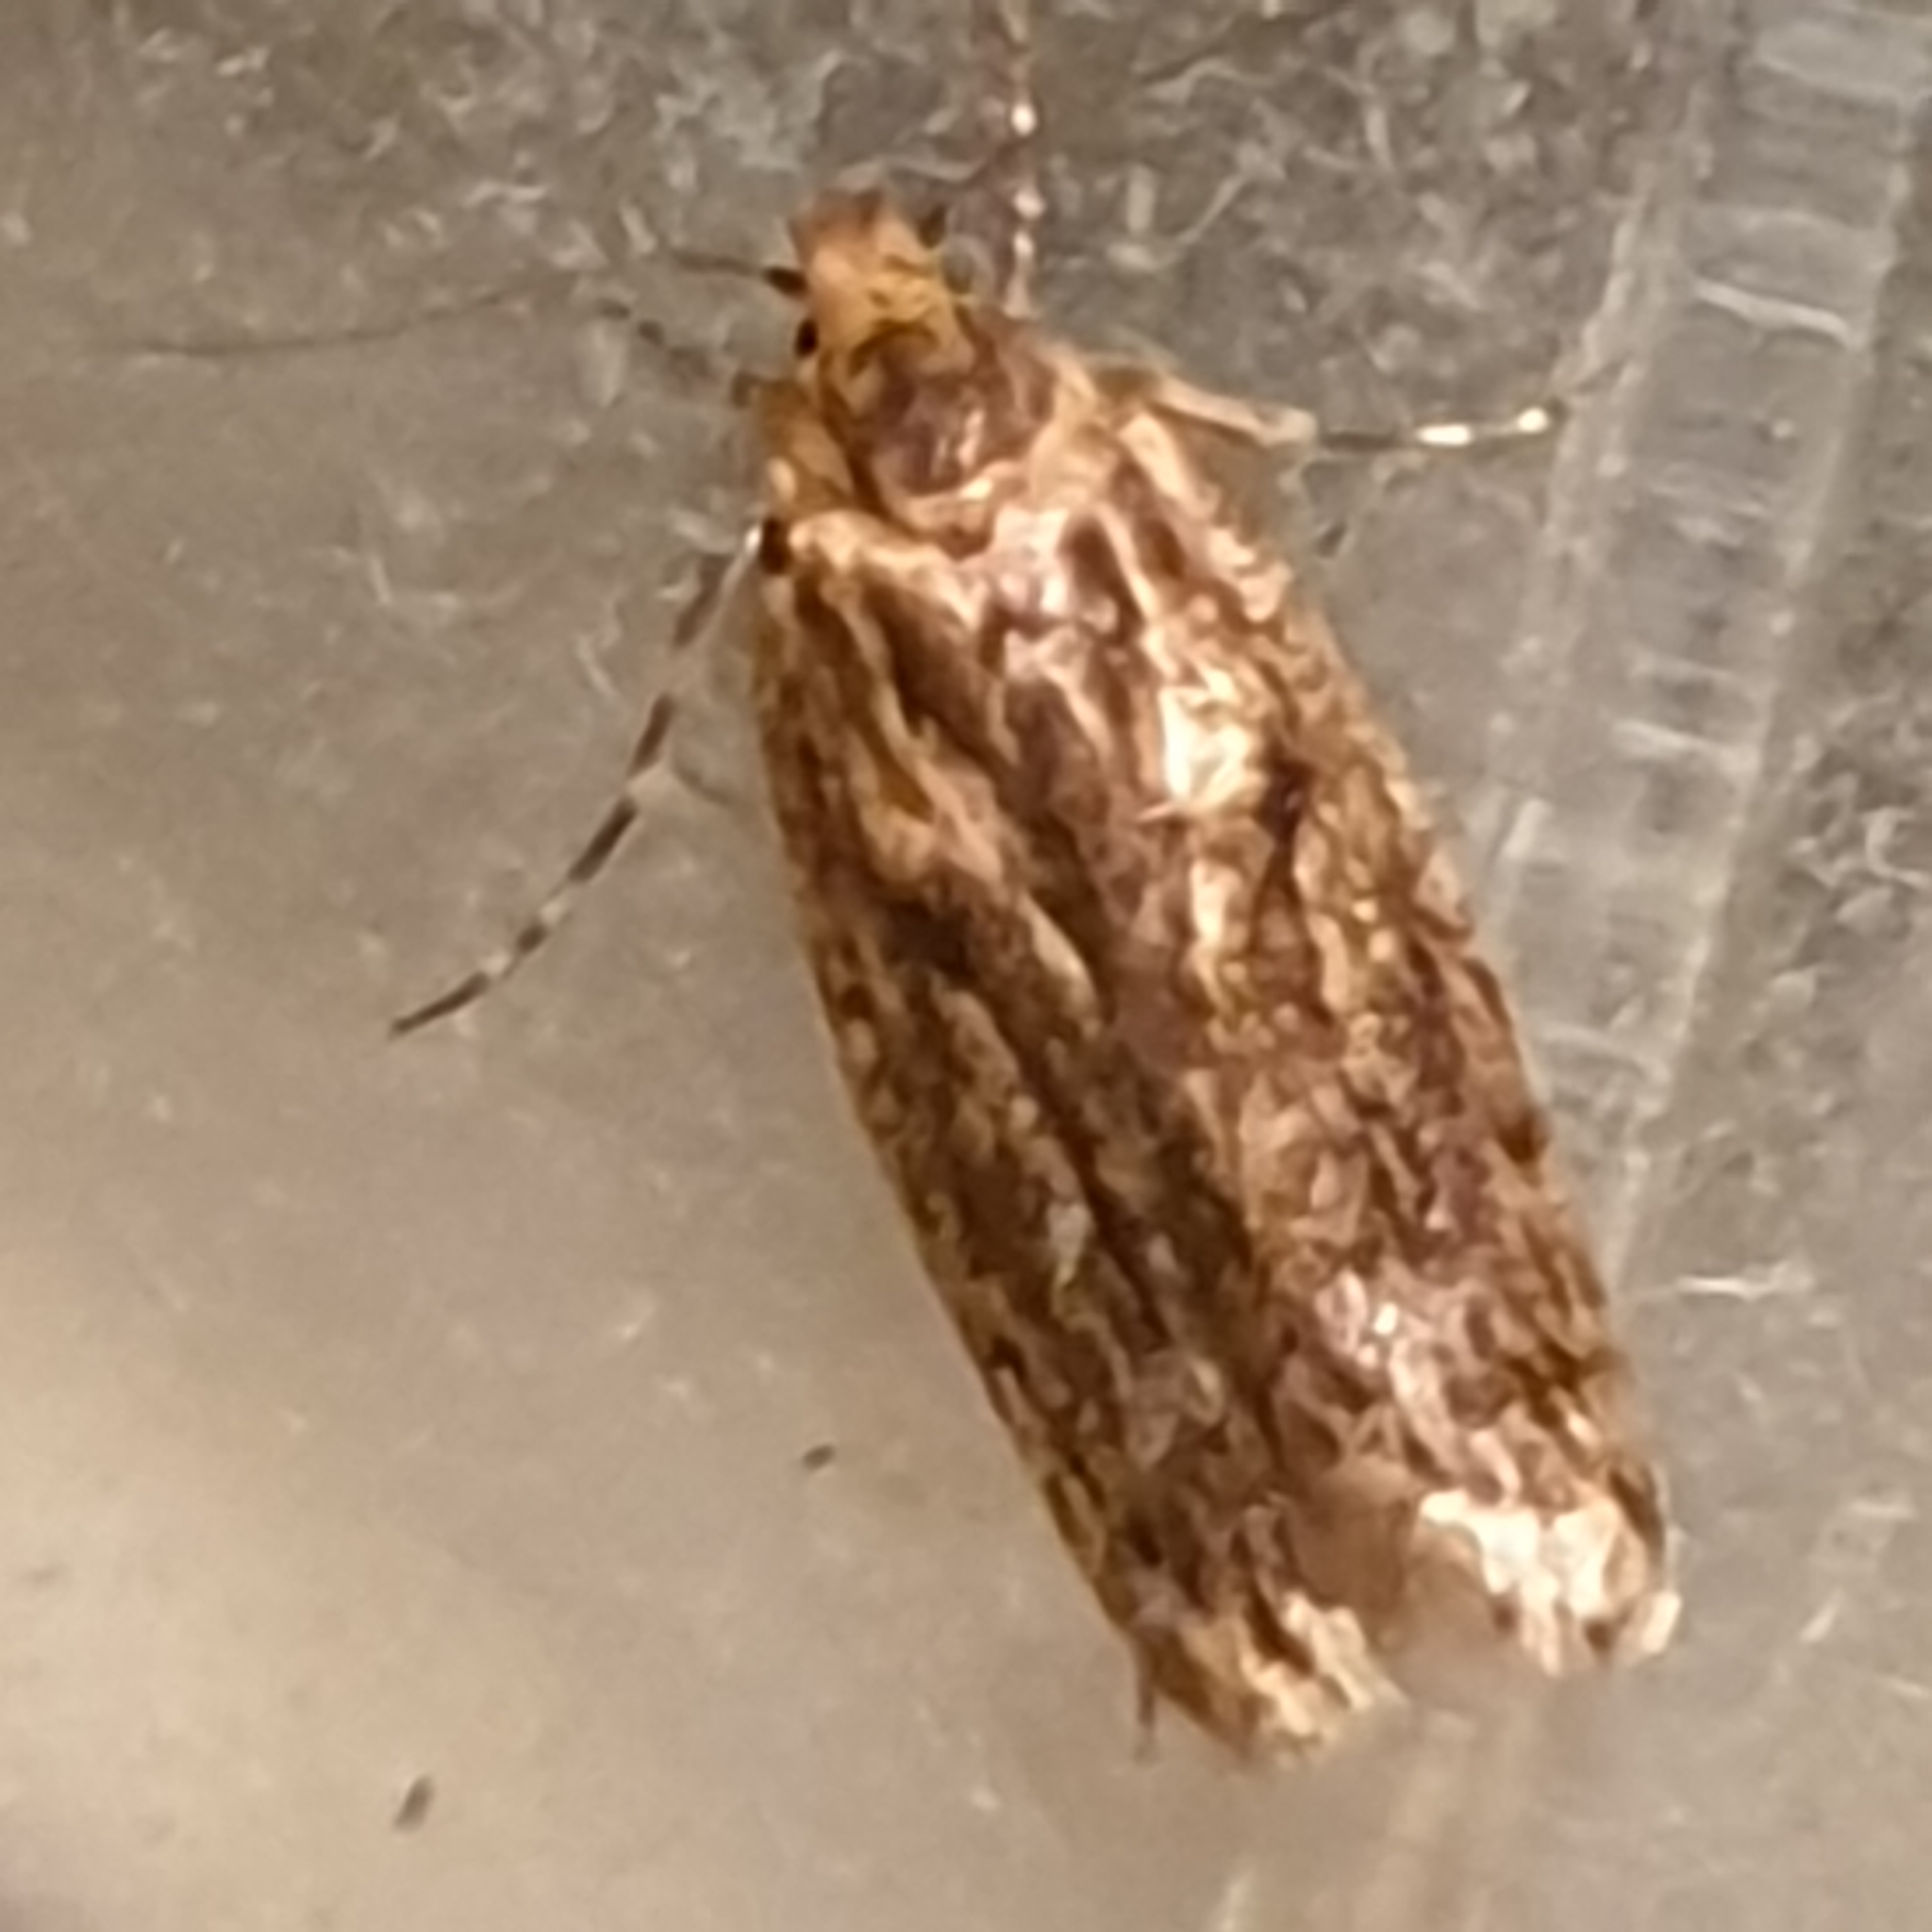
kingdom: Animalia
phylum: Arthropoda
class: Insecta
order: Lepidoptera
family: Oecophoridae
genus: Hofmannophila
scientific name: Hofmannophila pseudospretella
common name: Brown house moth
